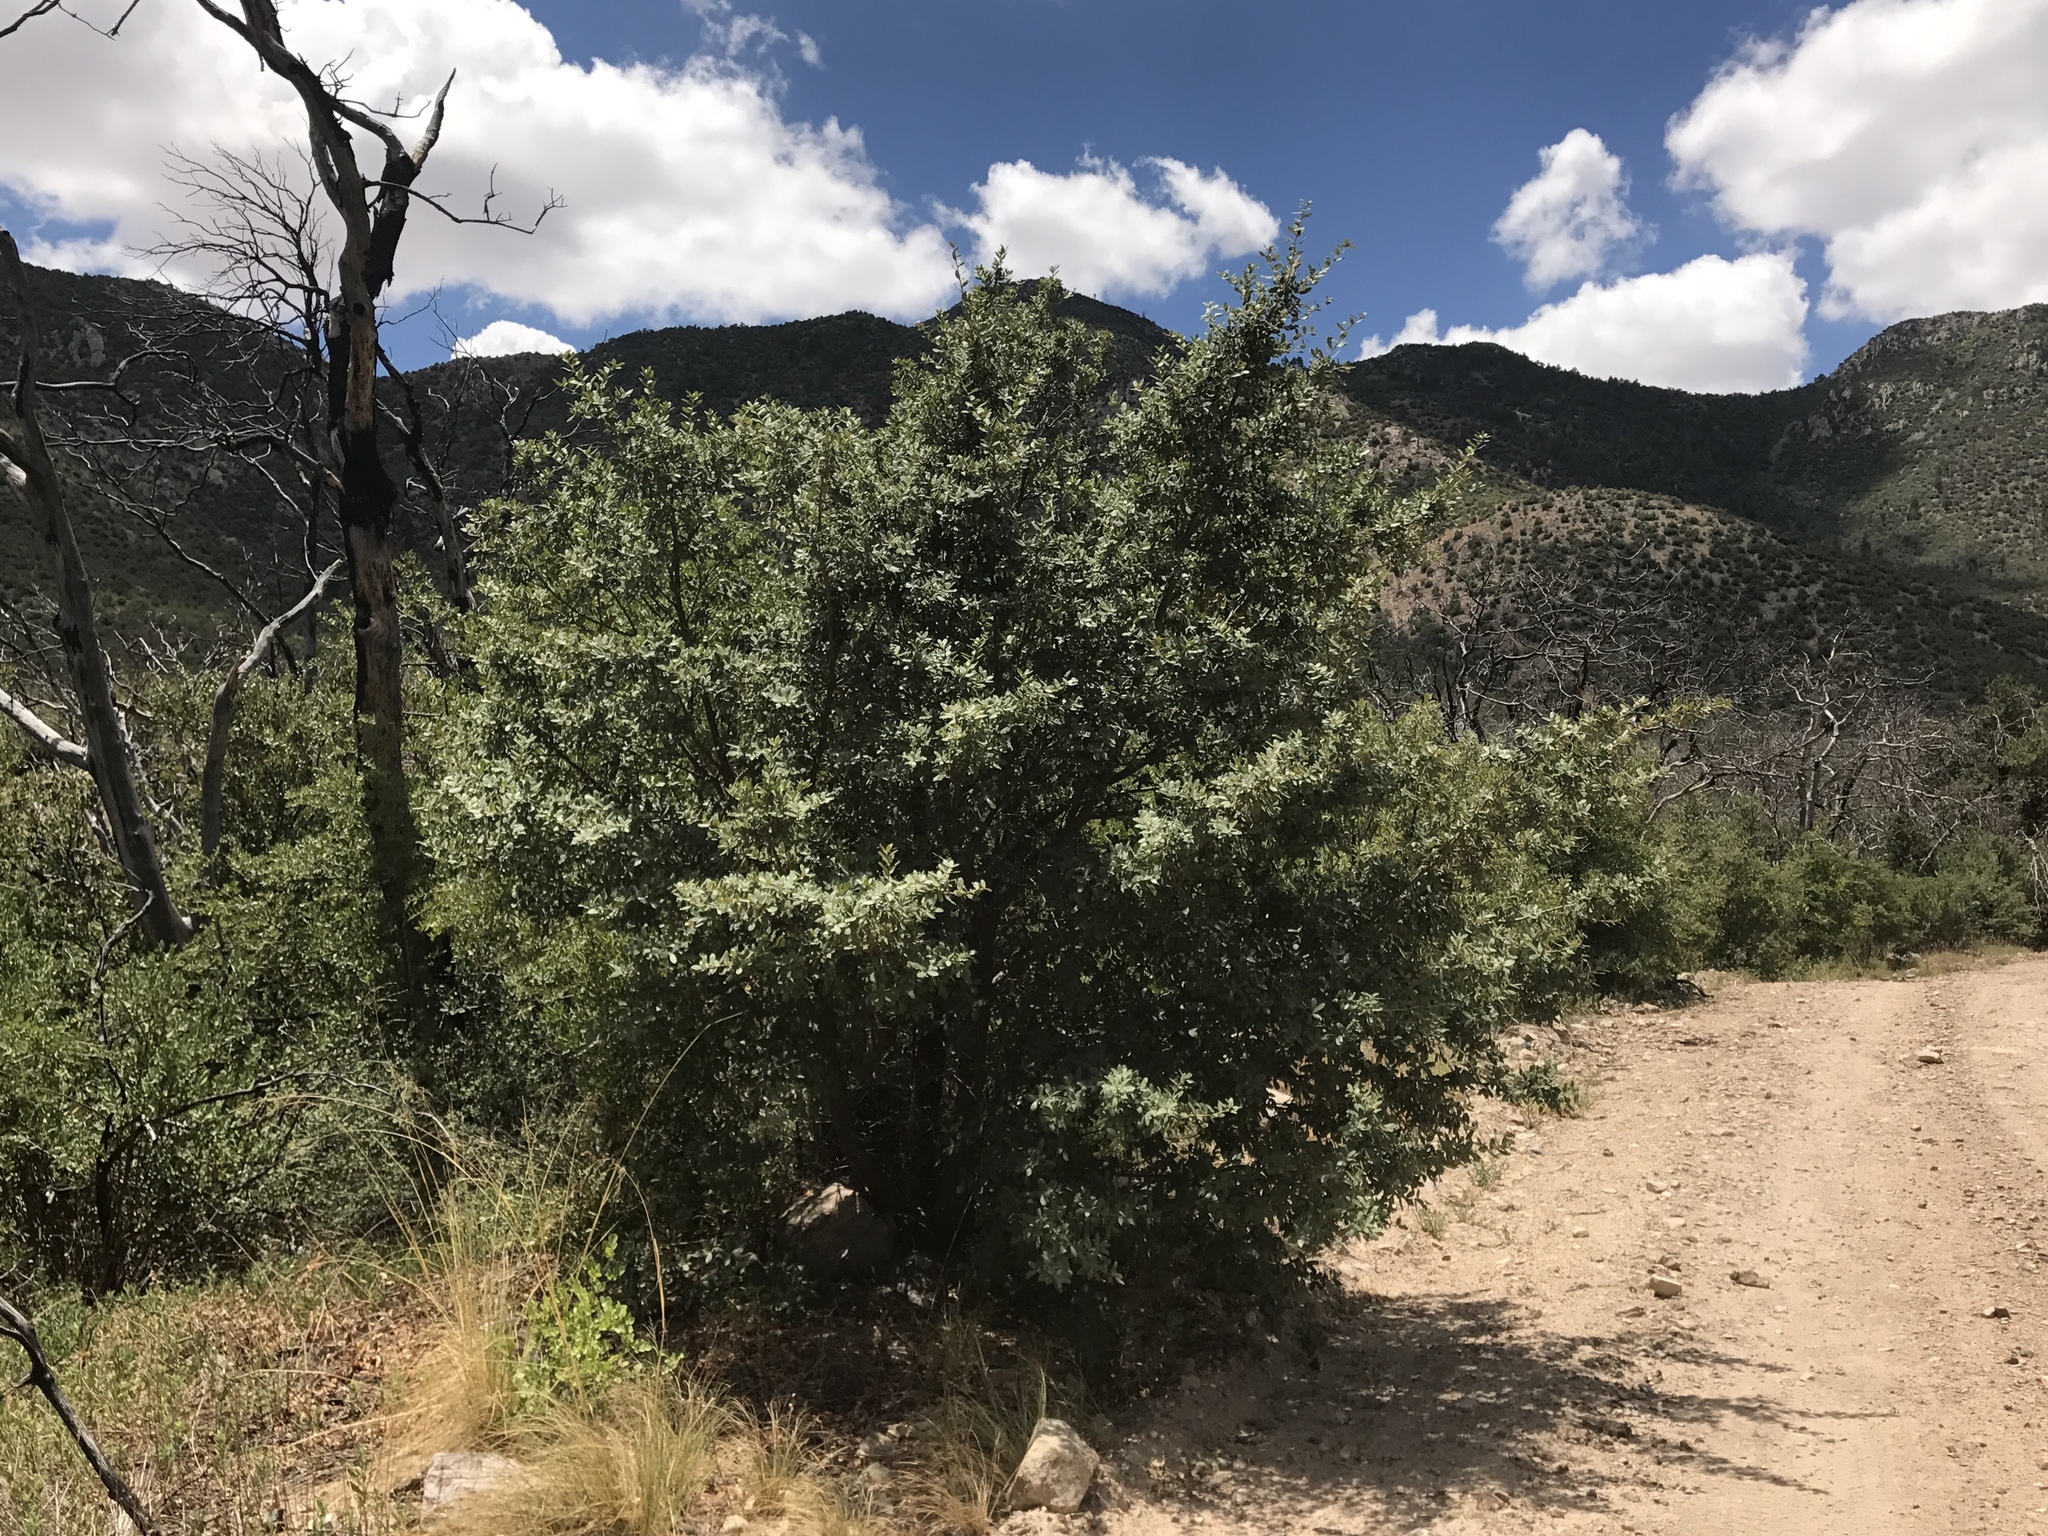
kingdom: Plantae
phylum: Tracheophyta
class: Magnoliopsida
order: Fagales
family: Fagaceae
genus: Quercus
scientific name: Quercus arizonica
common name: Arizona white oak
